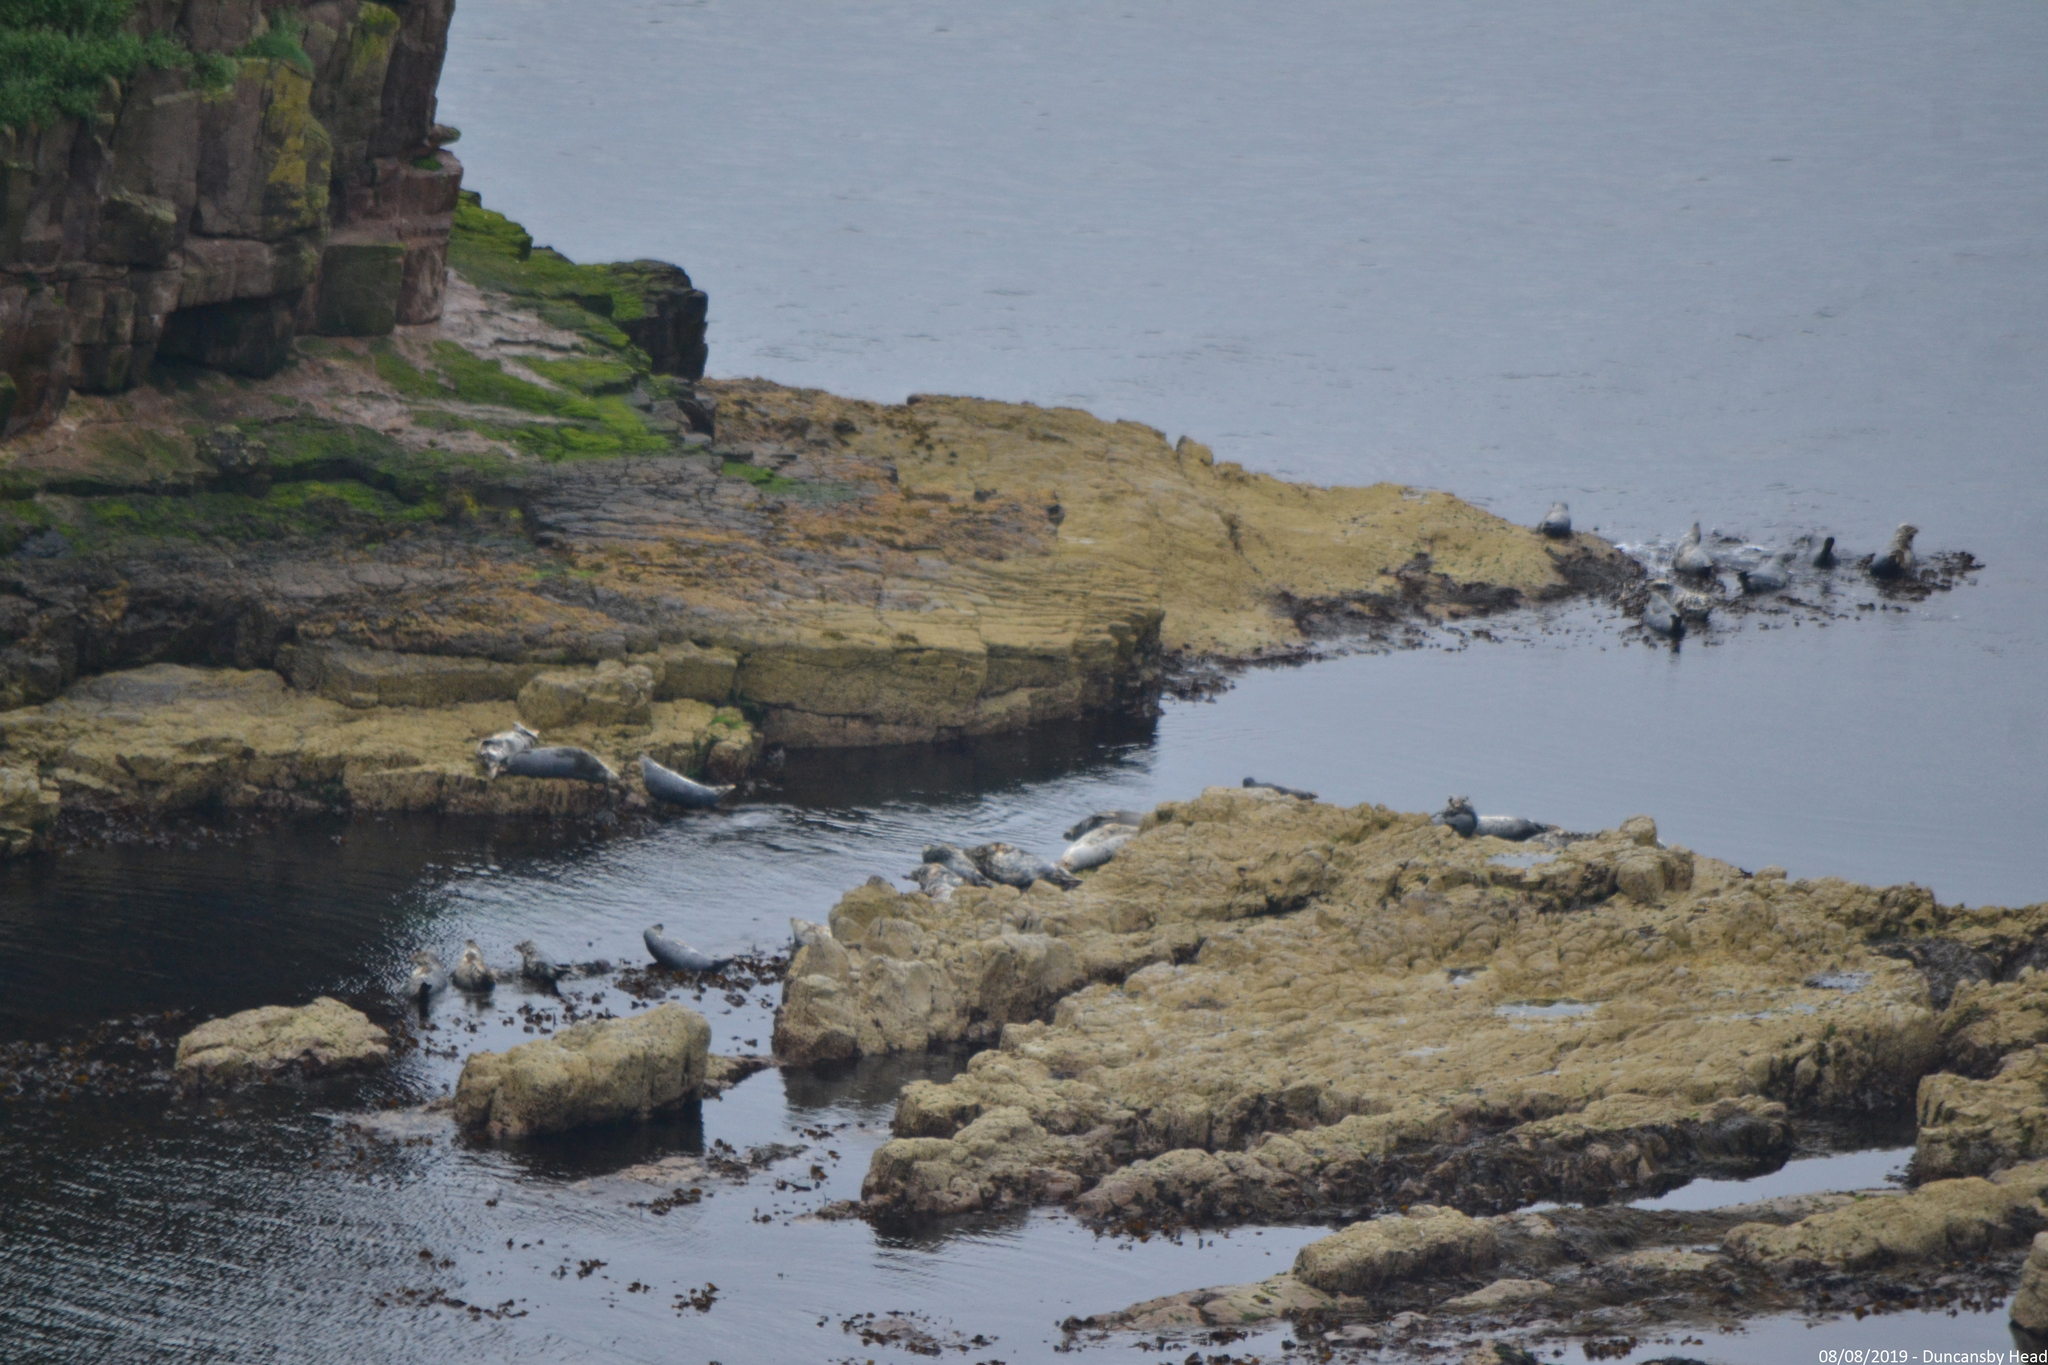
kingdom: Animalia
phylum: Chordata
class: Mammalia
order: Carnivora
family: Phocidae
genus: Halichoerus
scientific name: Halichoerus grypus
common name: Grey seal
